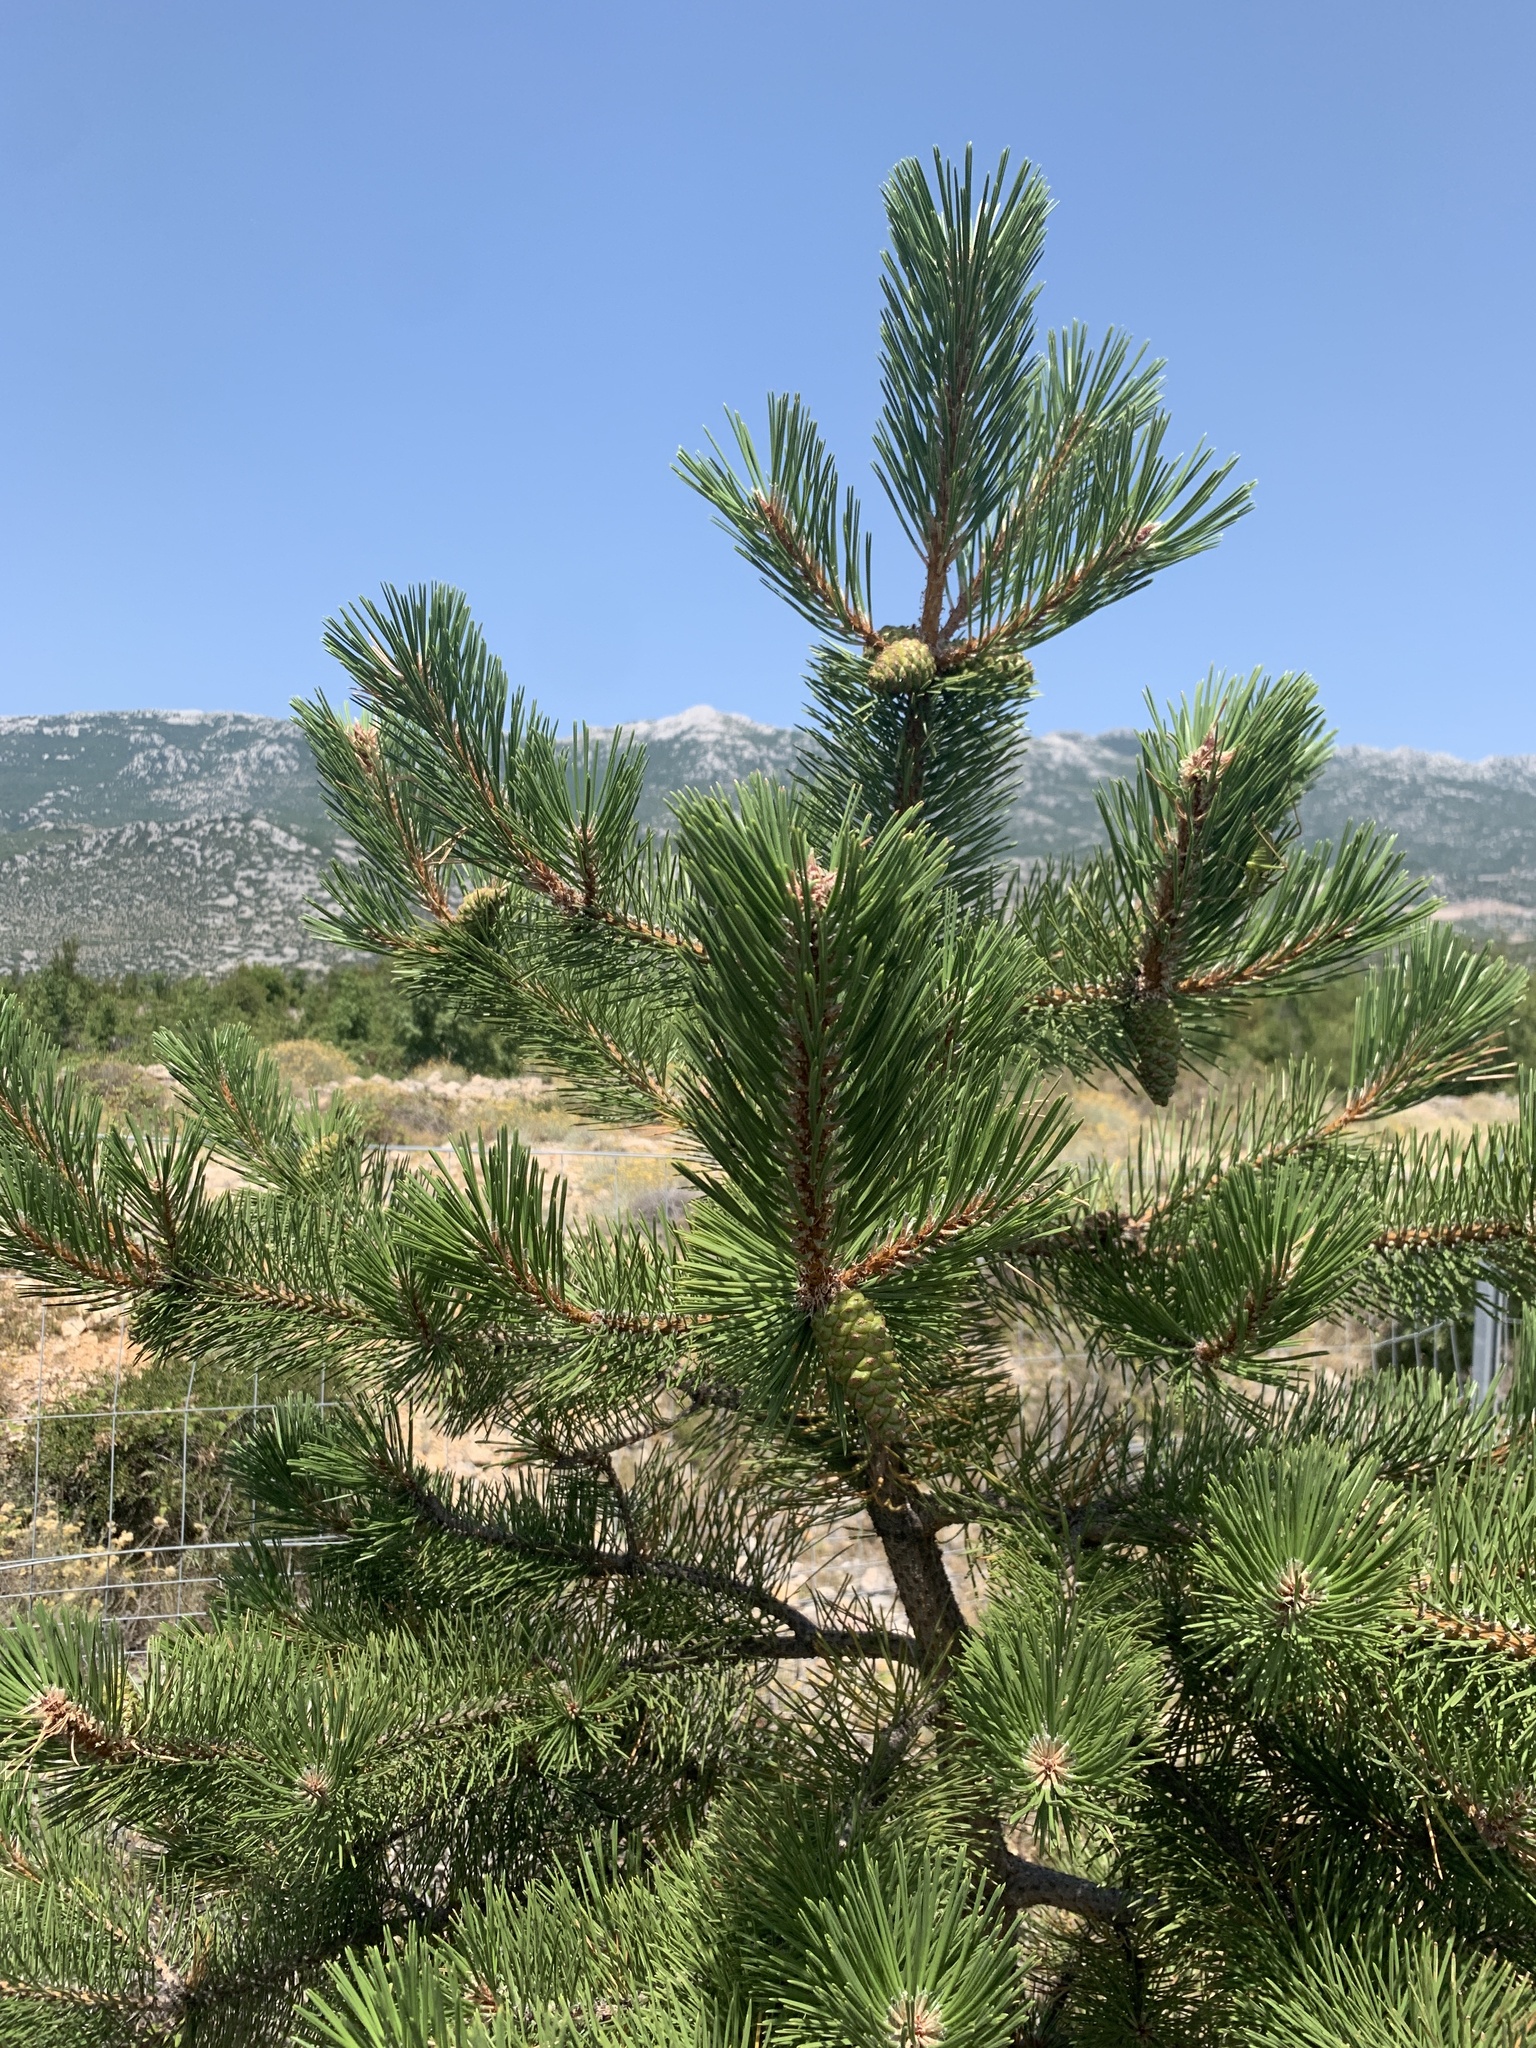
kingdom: Plantae
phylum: Tracheophyta
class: Pinopsida
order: Pinales
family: Pinaceae
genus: Pinus
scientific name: Pinus nigra
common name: Austrian pine
